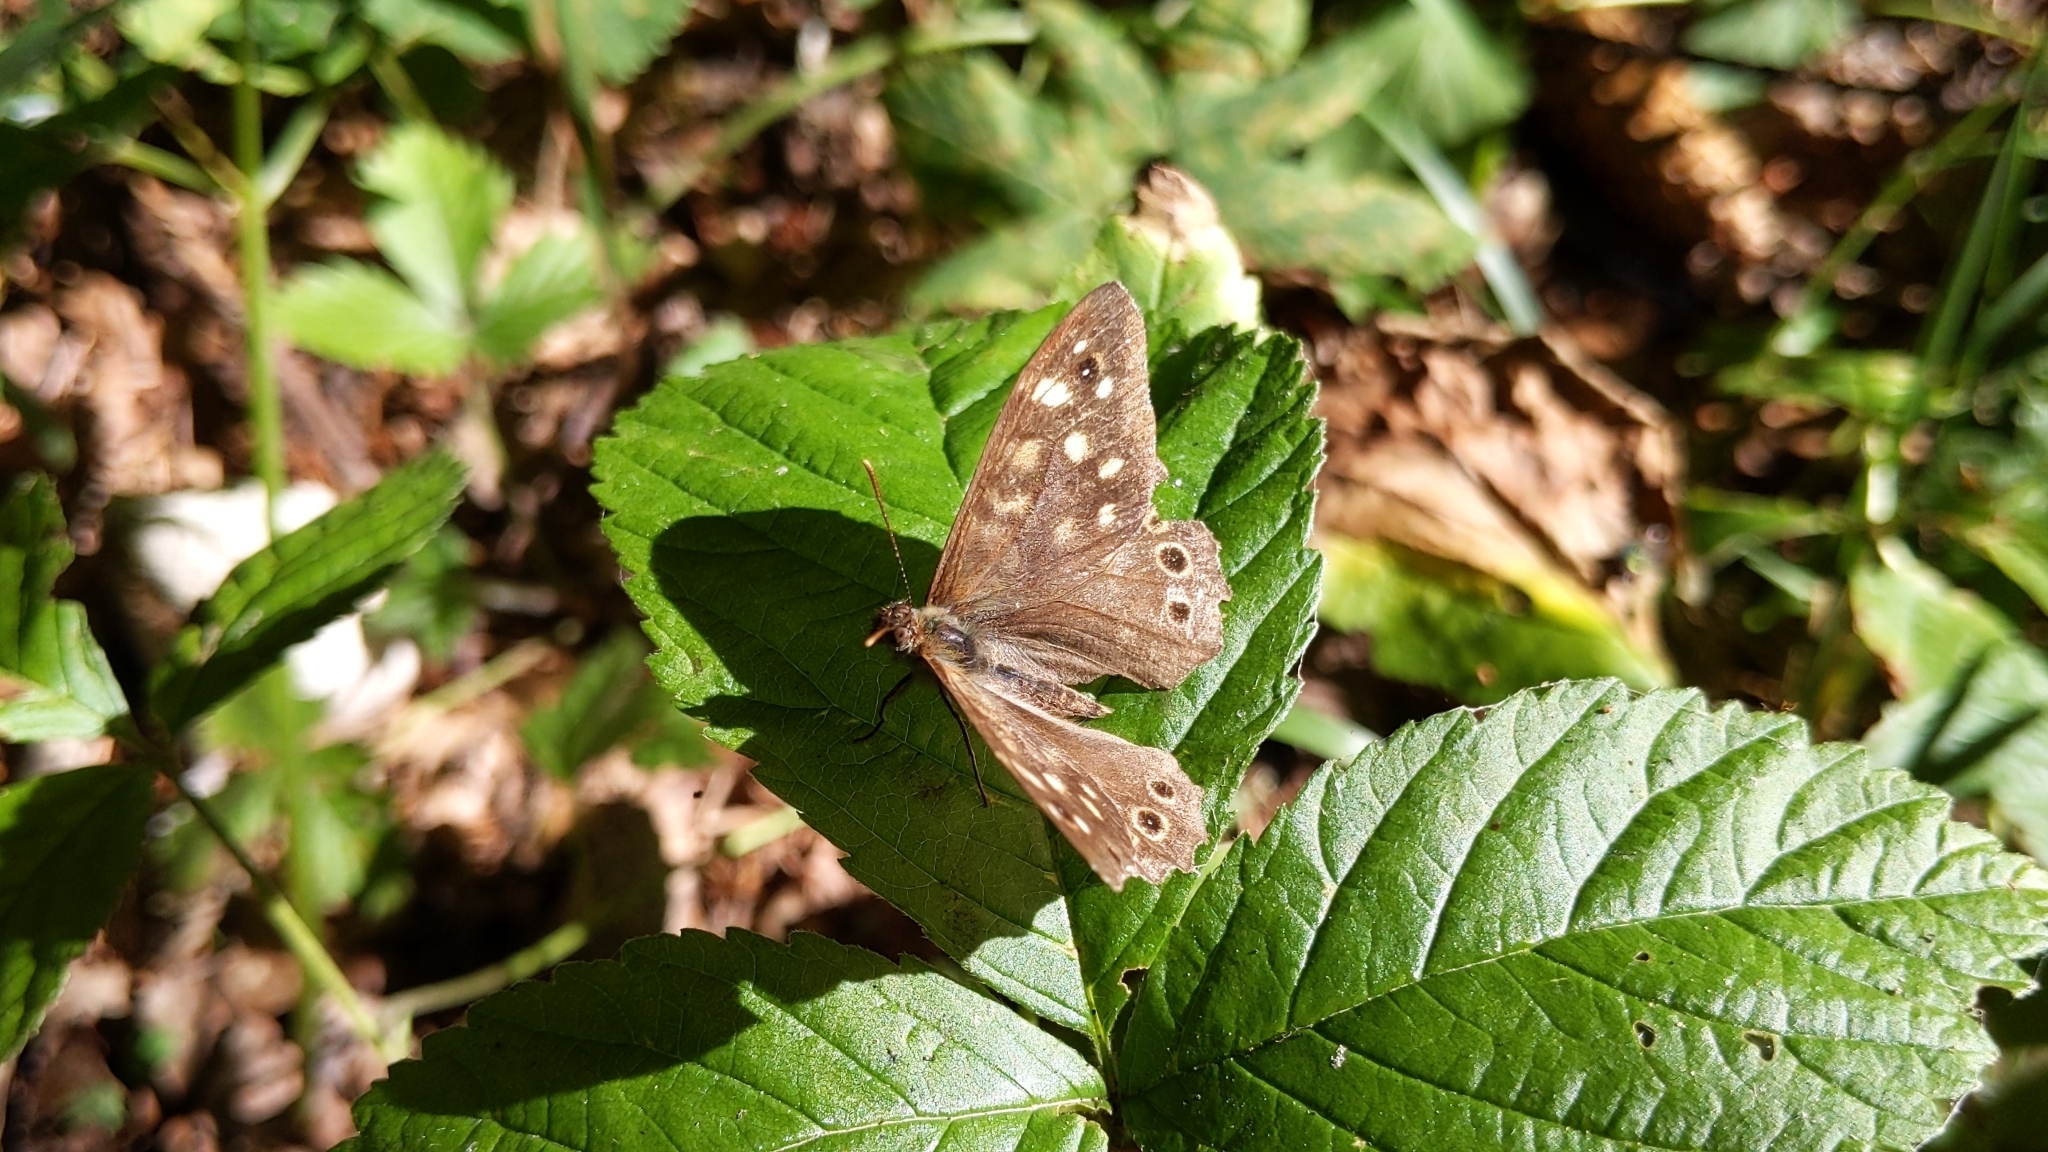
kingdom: Animalia
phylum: Arthropoda
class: Insecta
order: Lepidoptera
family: Nymphalidae
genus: Pararge
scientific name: Pararge aegeria
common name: Speckled wood
